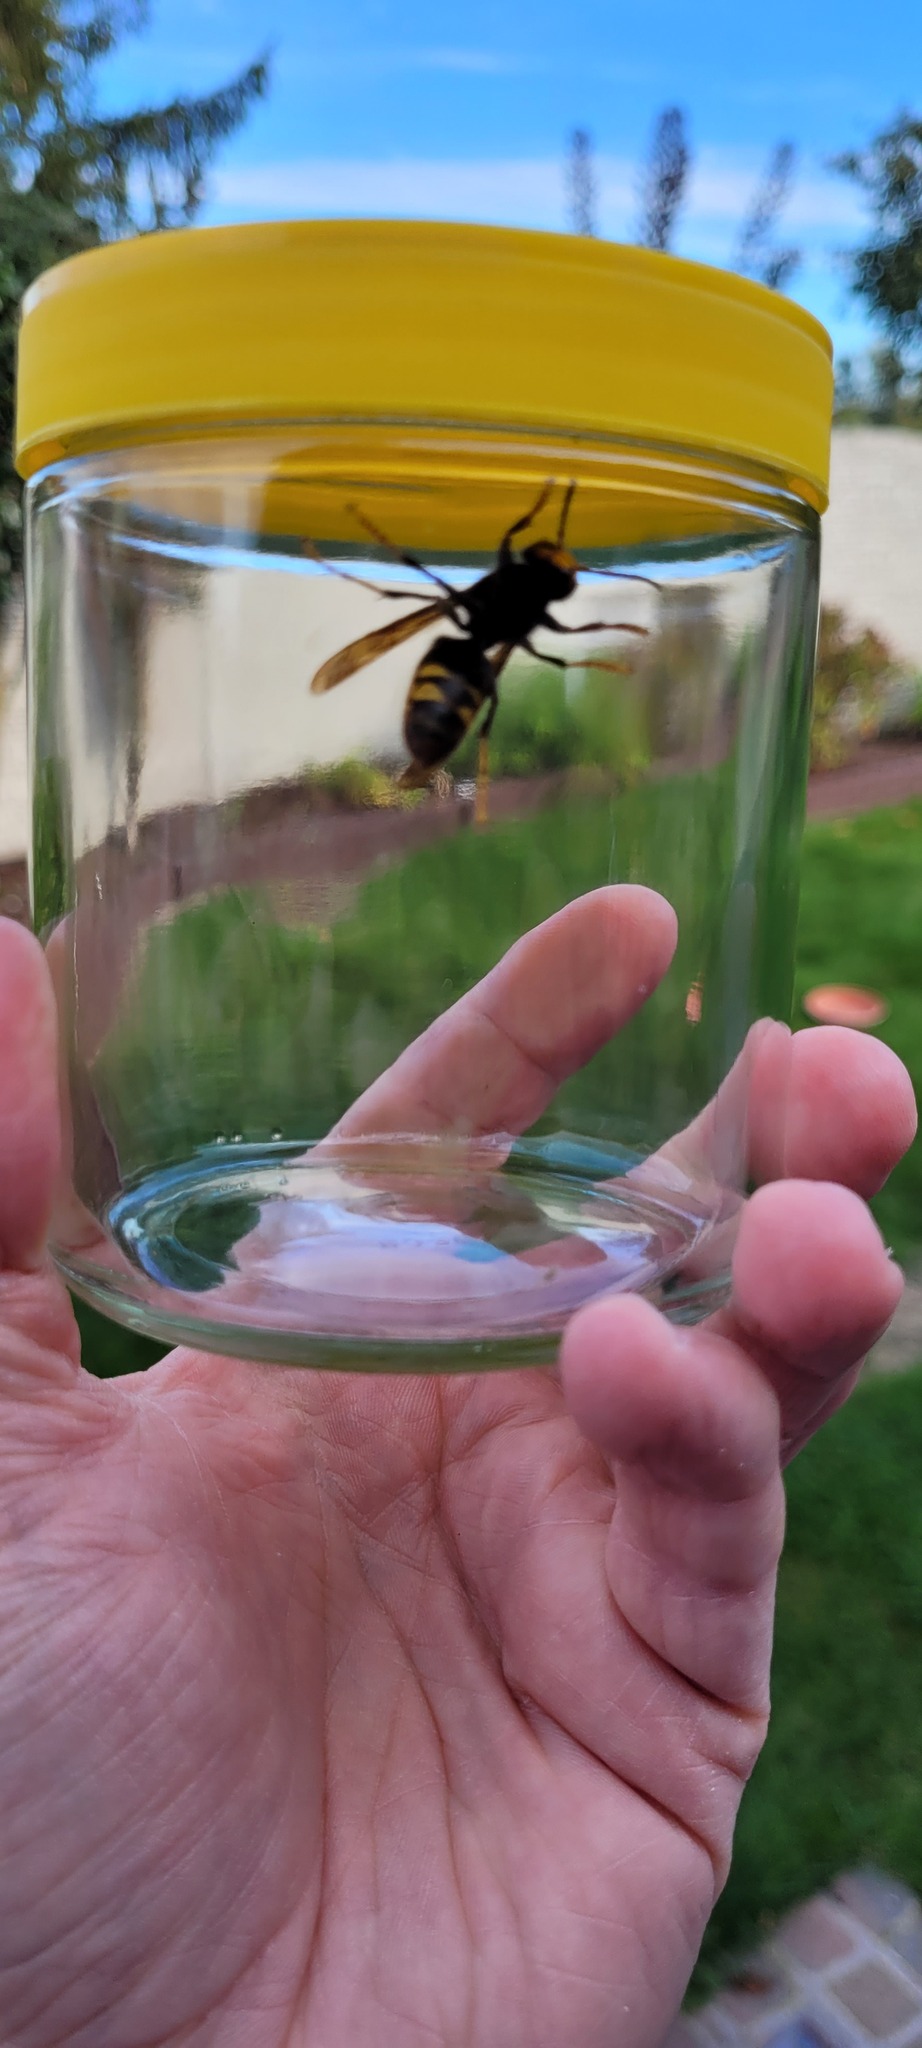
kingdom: Animalia
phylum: Arthropoda
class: Insecta
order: Hymenoptera
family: Vespidae
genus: Vespa
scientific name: Vespa velutina
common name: Asian hornet
